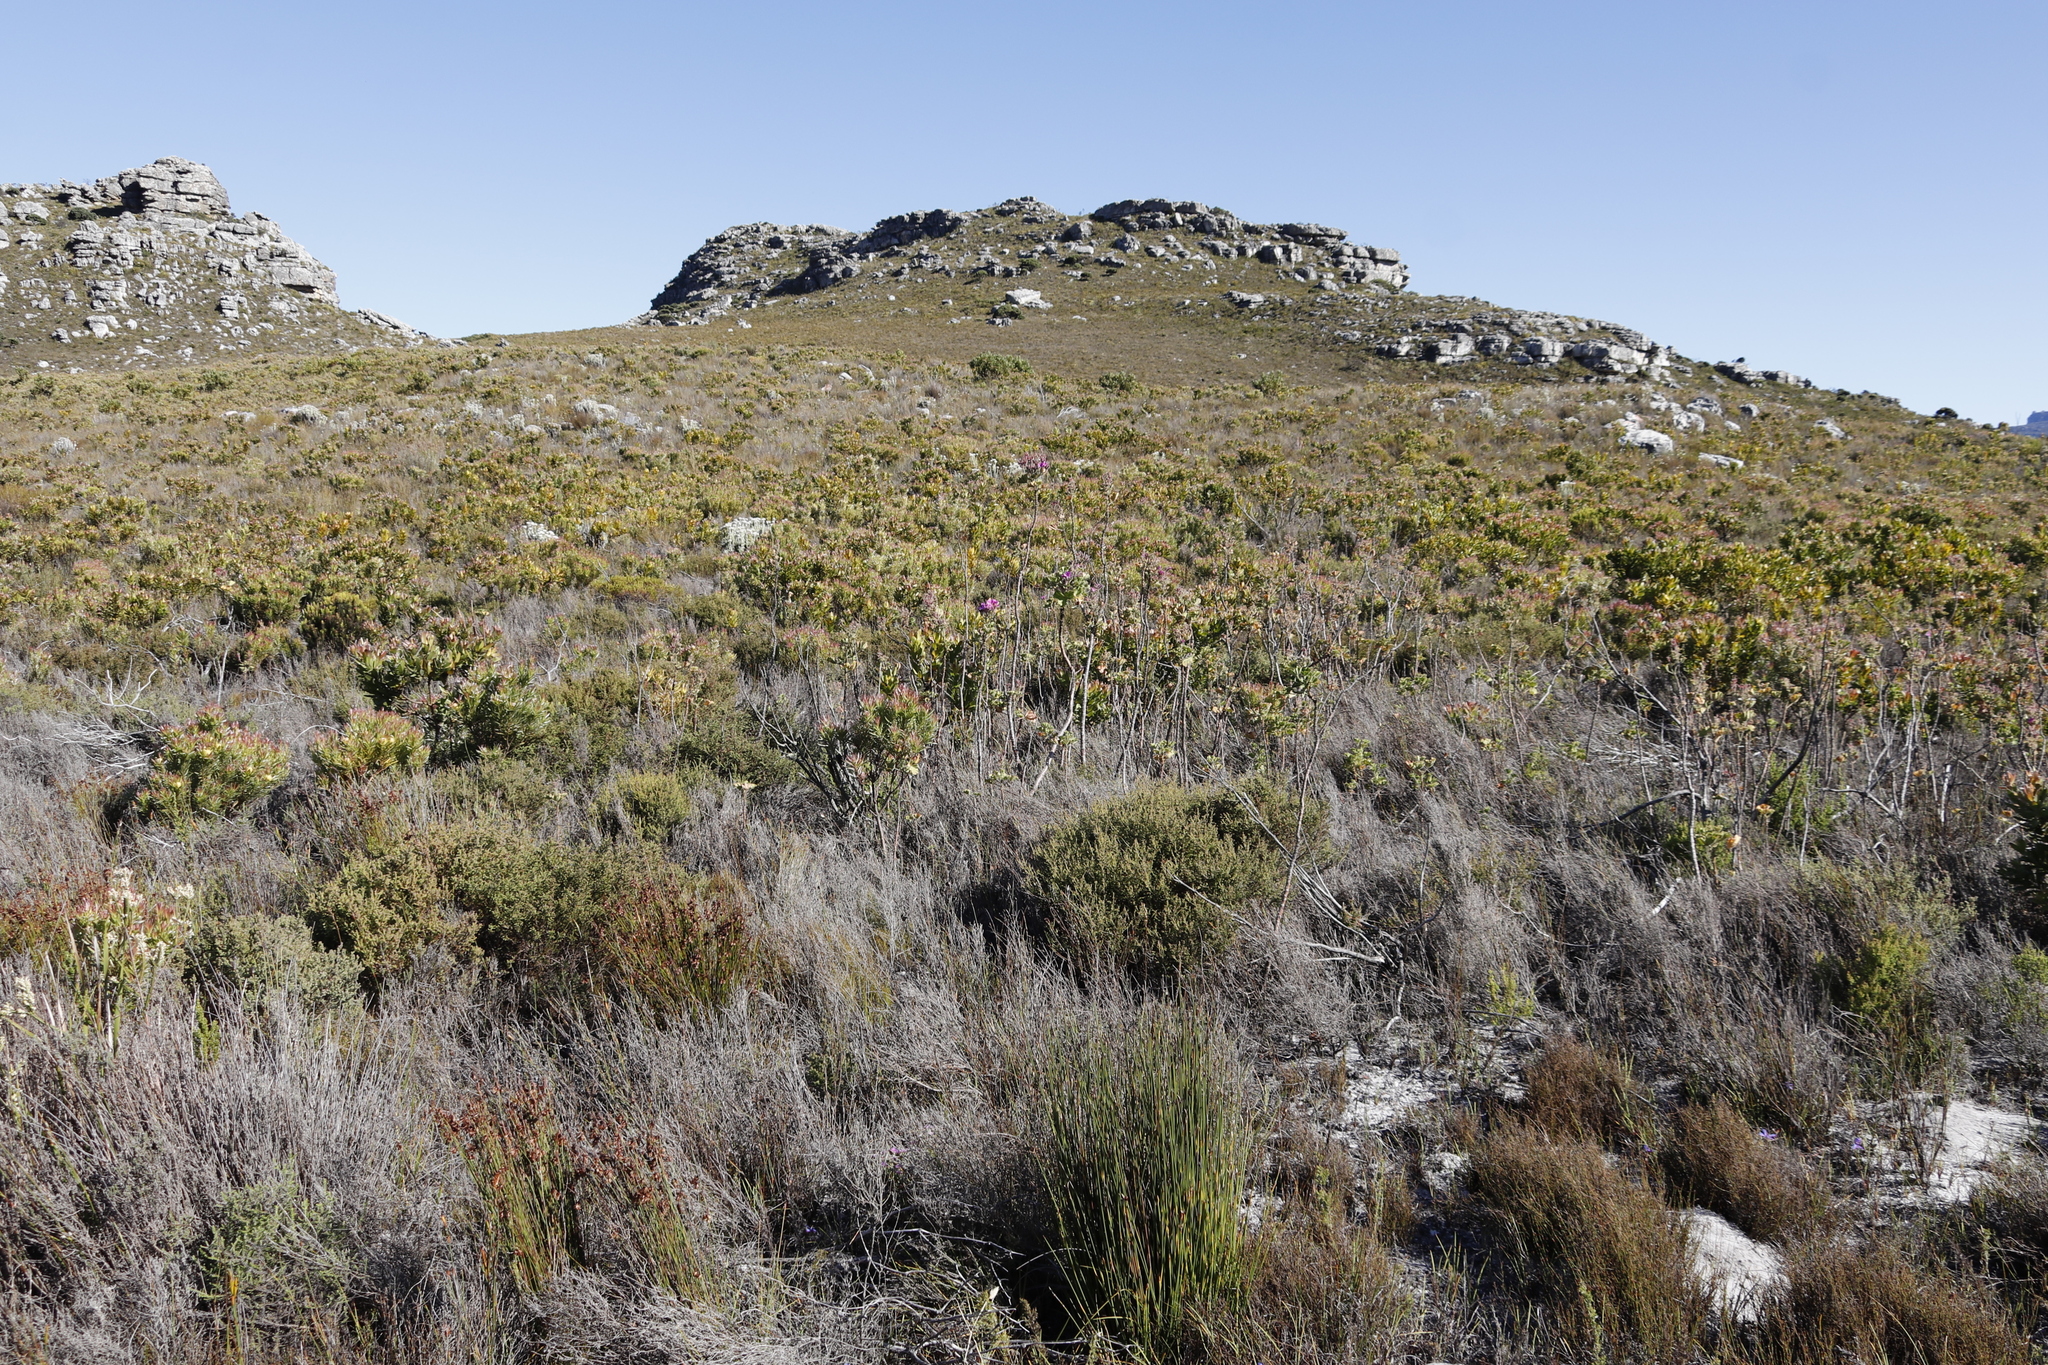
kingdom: Plantae
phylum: Tracheophyta
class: Magnoliopsida
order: Geraniales
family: Geraniaceae
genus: Pelargonium
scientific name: Pelargonium cucullatum
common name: Tree pelargonium
